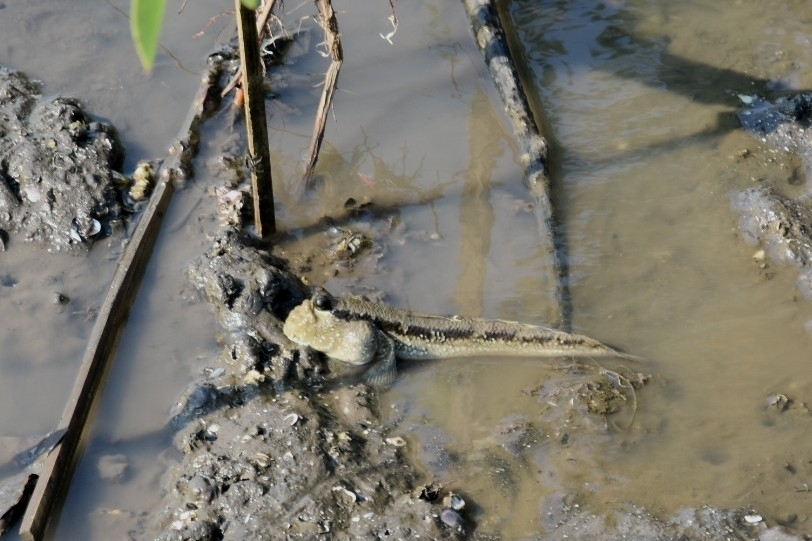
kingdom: Animalia
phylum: Chordata
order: Perciformes
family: Gobiidae
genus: Periophthalmodon
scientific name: Periophthalmodon schlosseri
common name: Giant mudskipper
